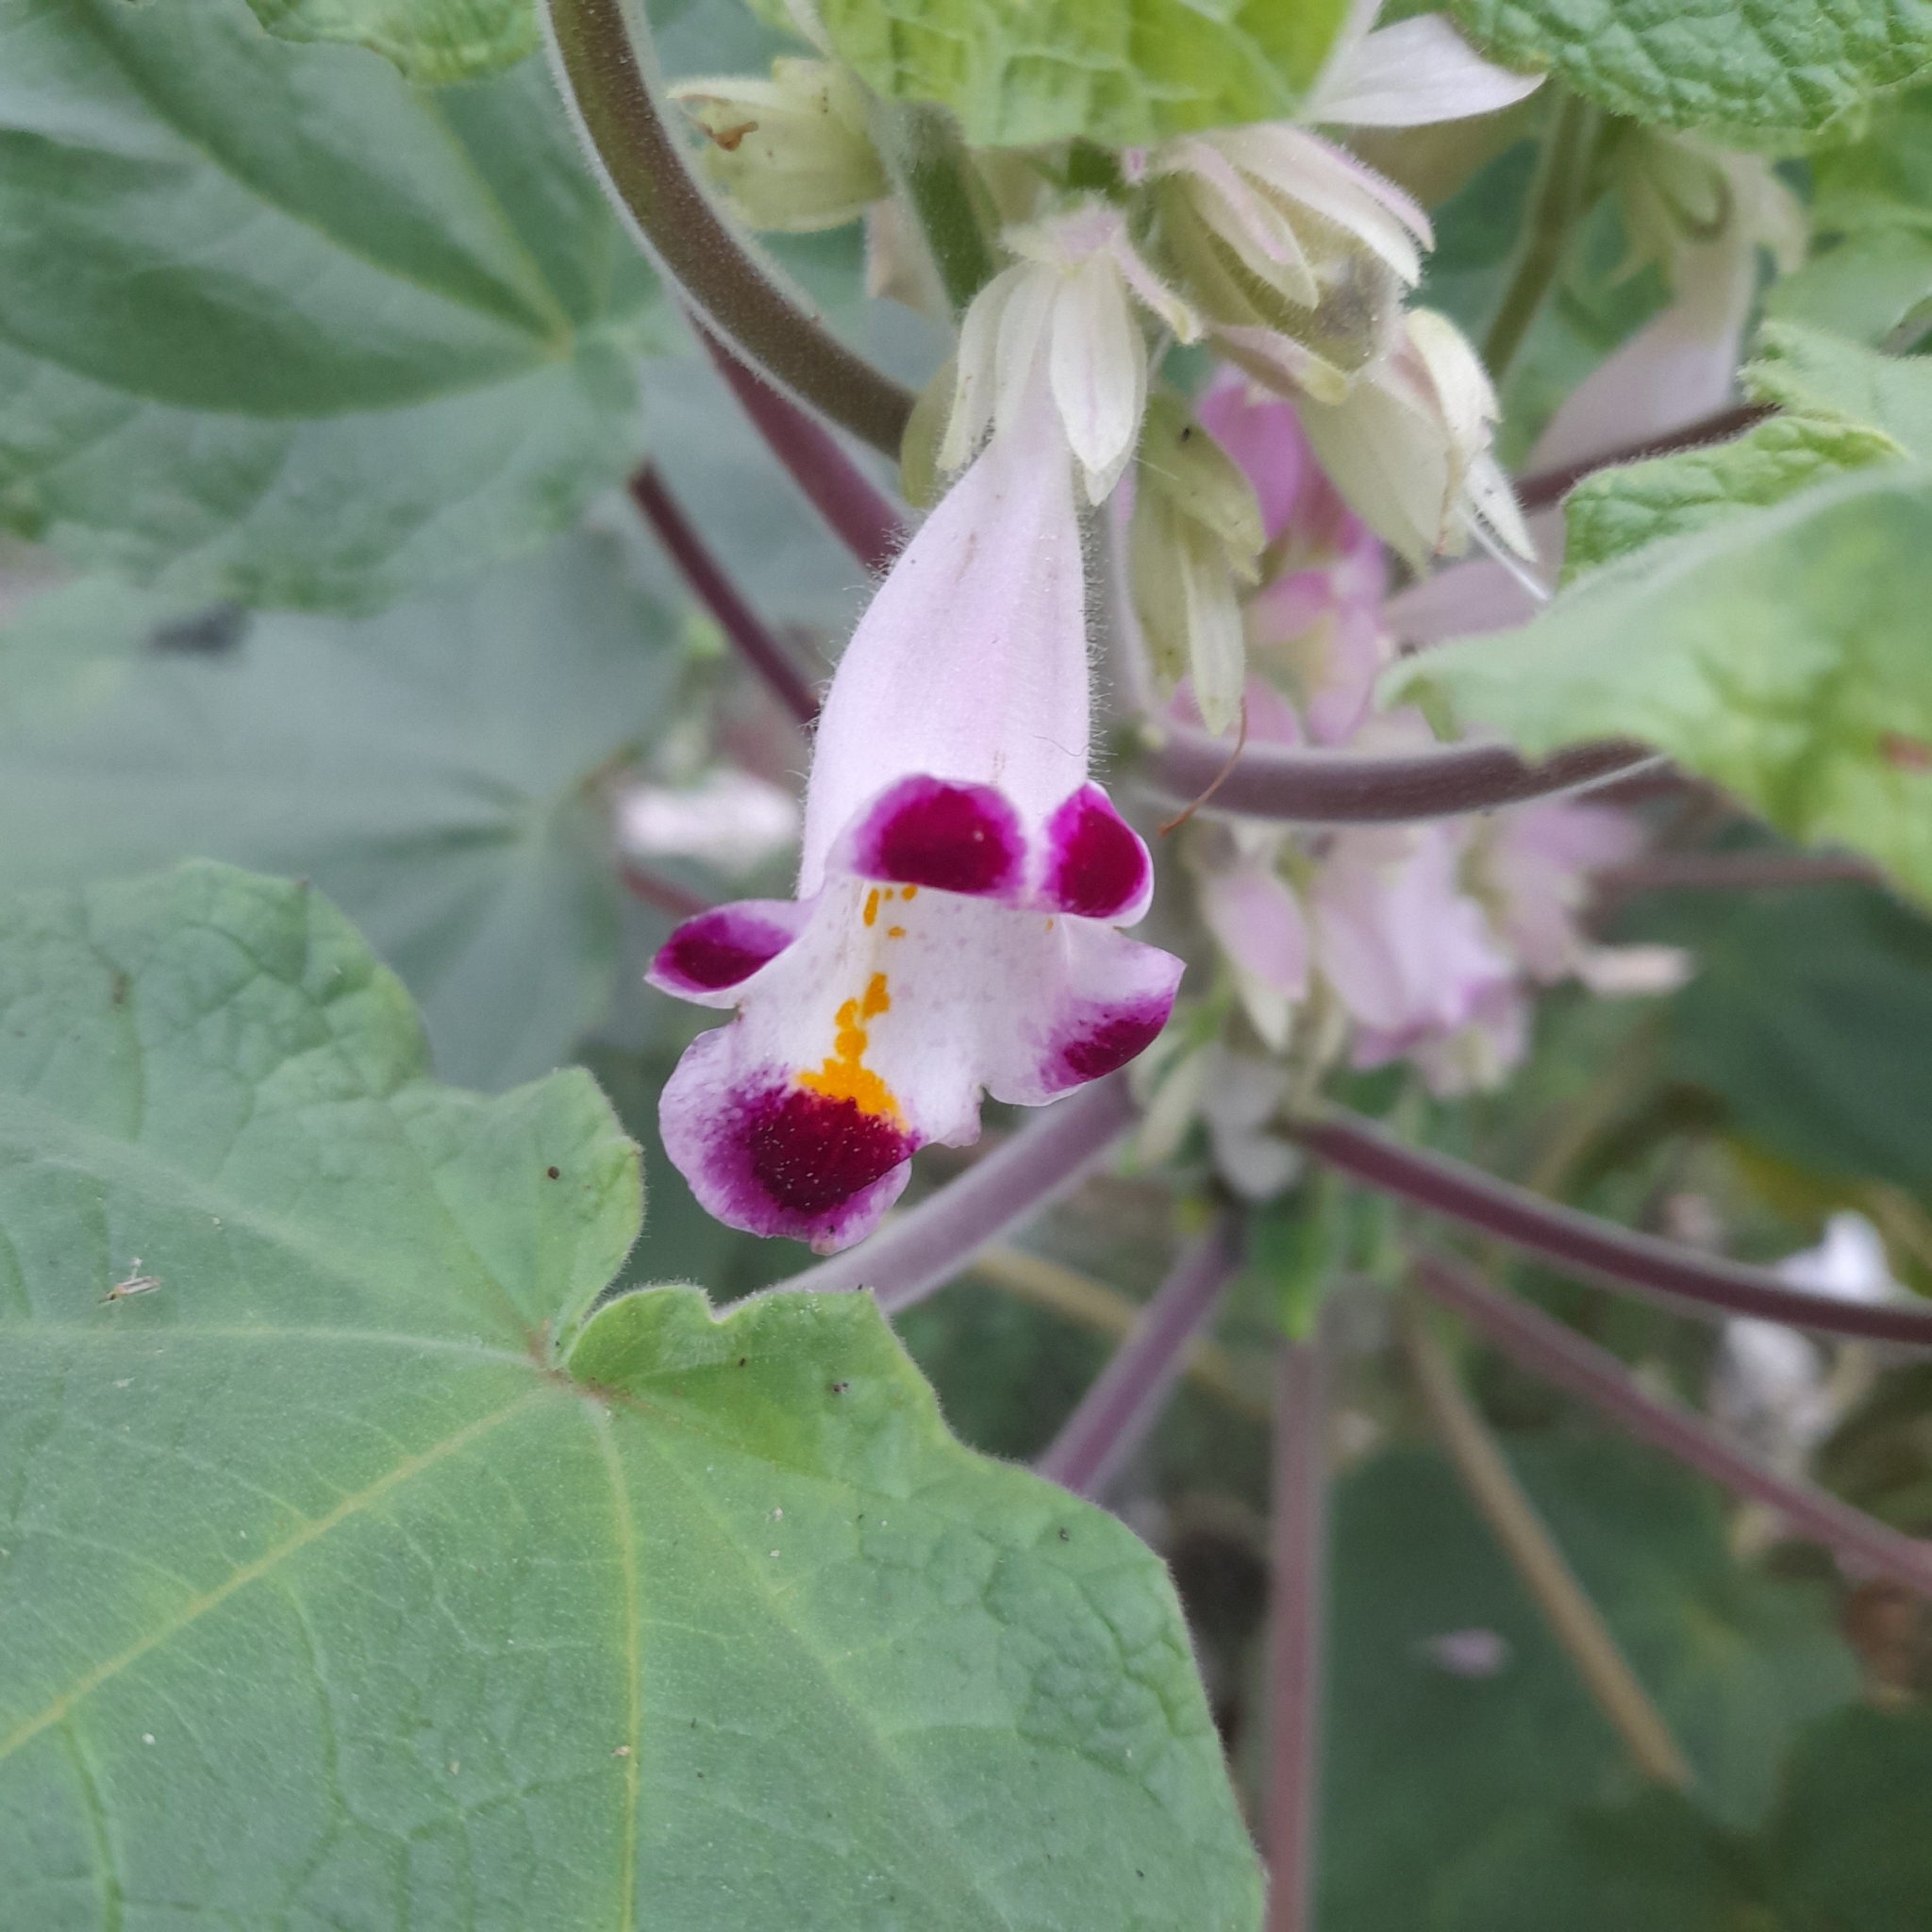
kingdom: Plantae
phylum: Tracheophyta
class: Magnoliopsida
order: Lamiales
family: Martyniaceae
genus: Martynia
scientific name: Martynia annua
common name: Tiger's-claw
